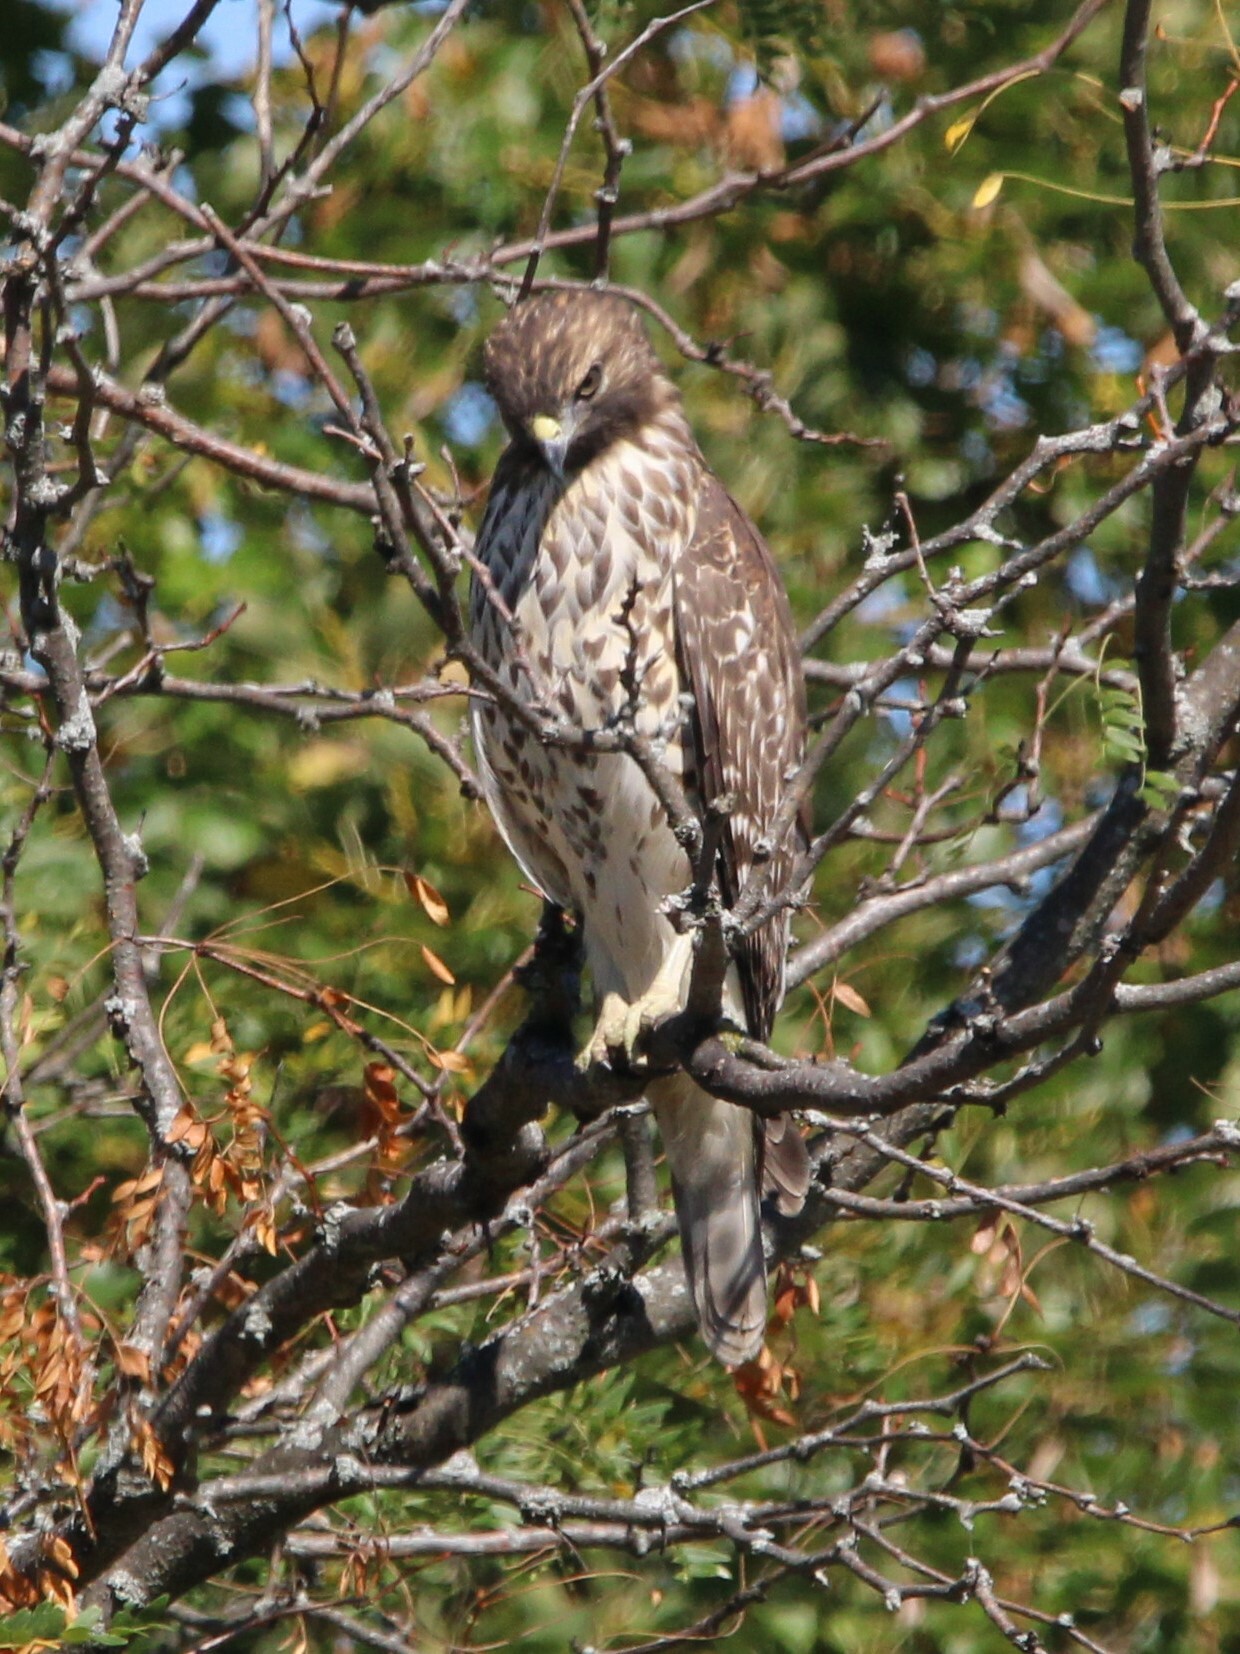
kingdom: Animalia
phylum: Chordata
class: Aves
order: Accipitriformes
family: Accipitridae
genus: Buteo
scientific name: Buteo lineatus
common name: Red-shouldered hawk
